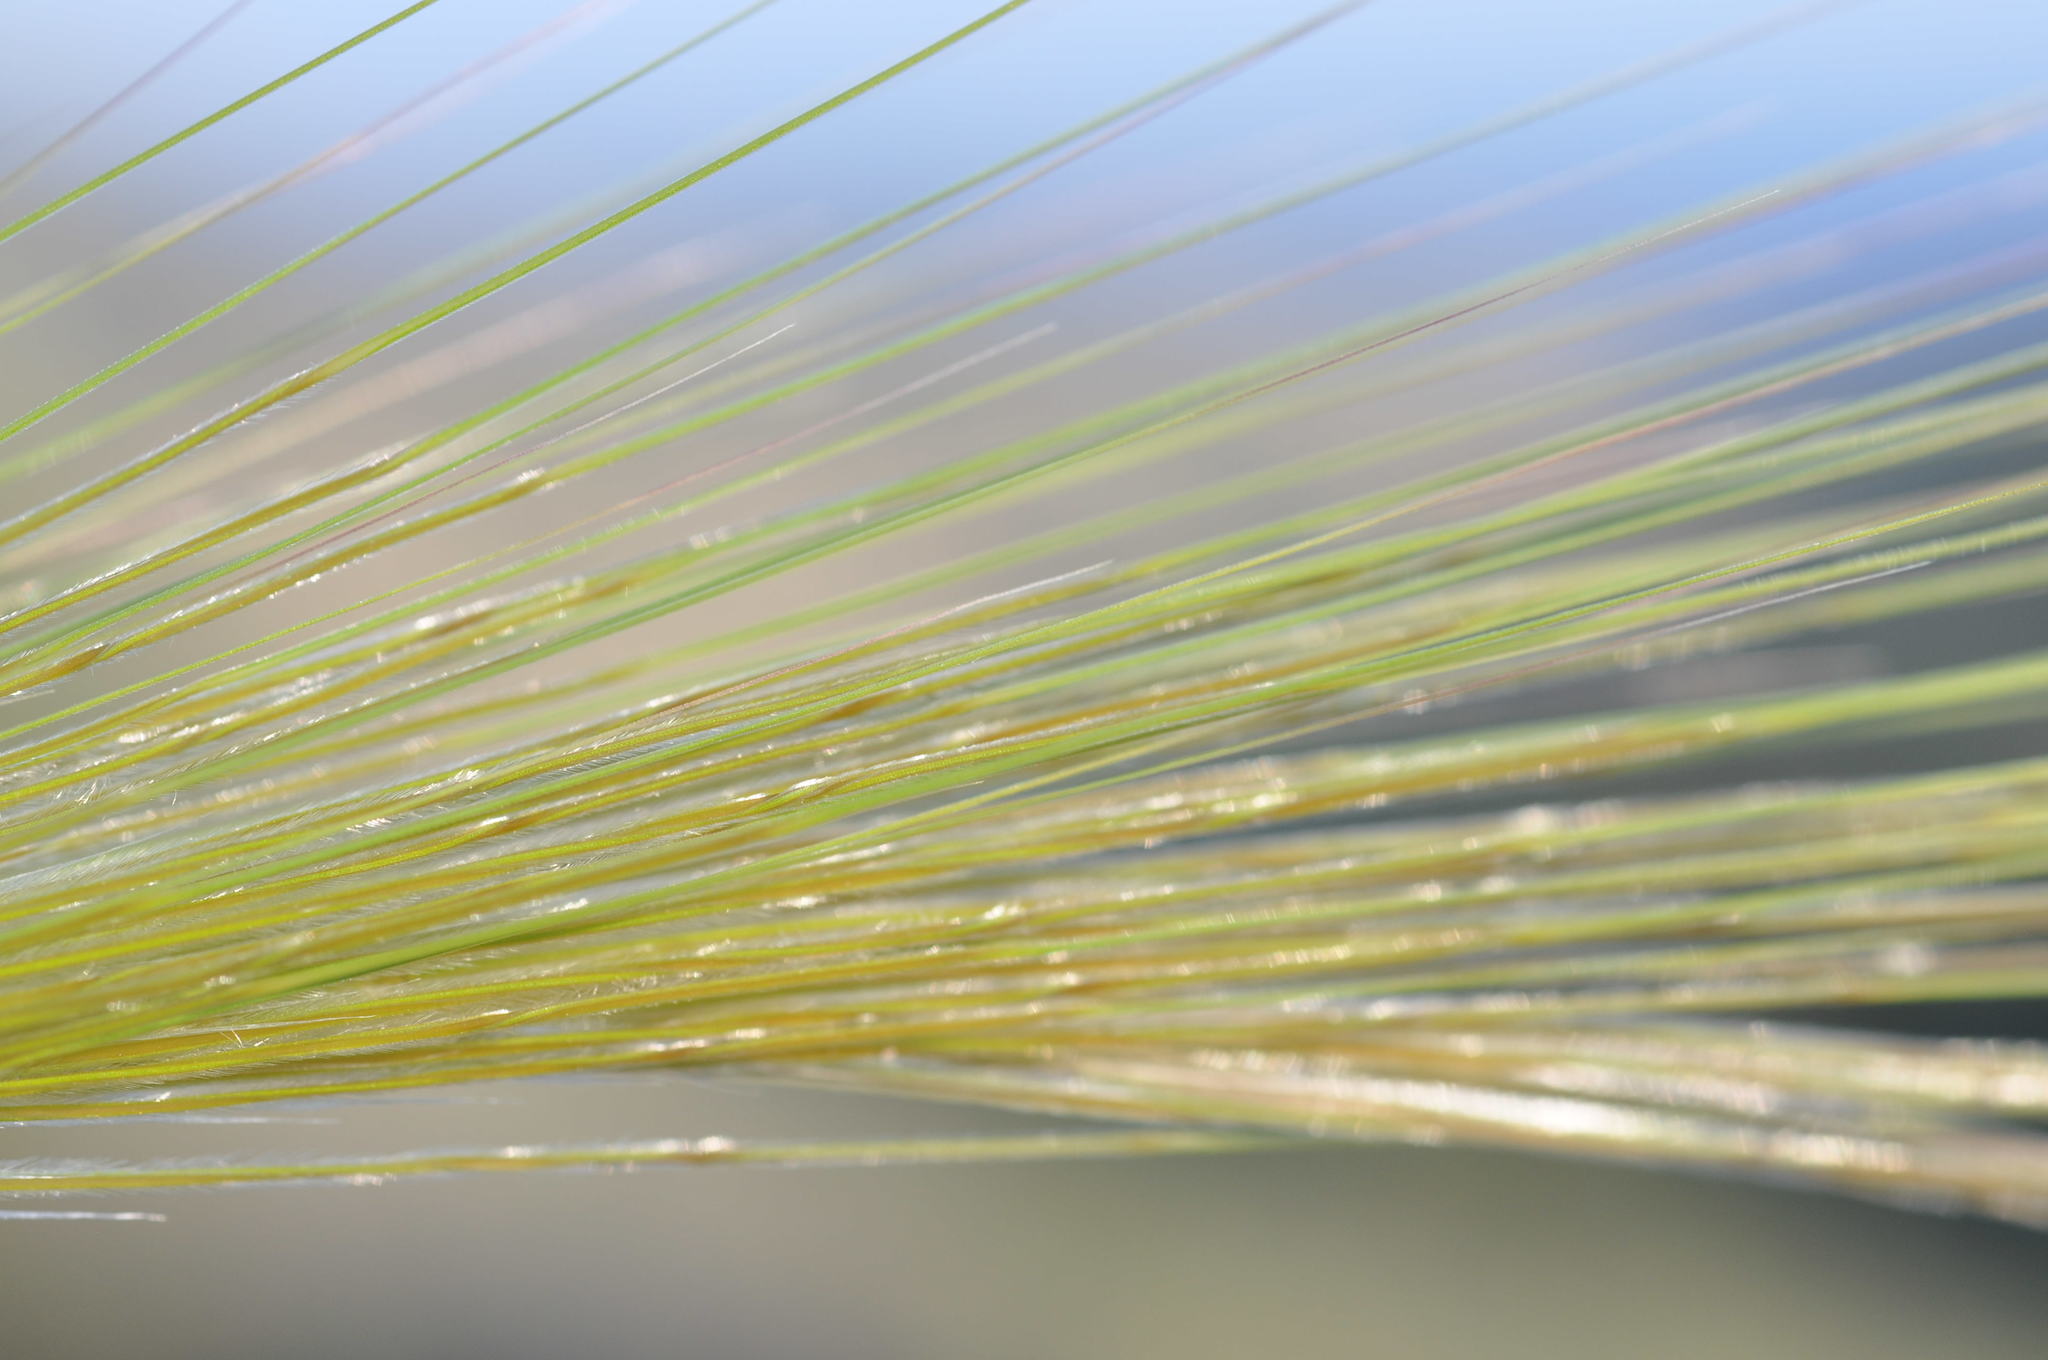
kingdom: Plantae
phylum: Tracheophyta
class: Liliopsida
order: Poales
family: Poaceae
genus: Stipellula
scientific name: Stipellula capensis
